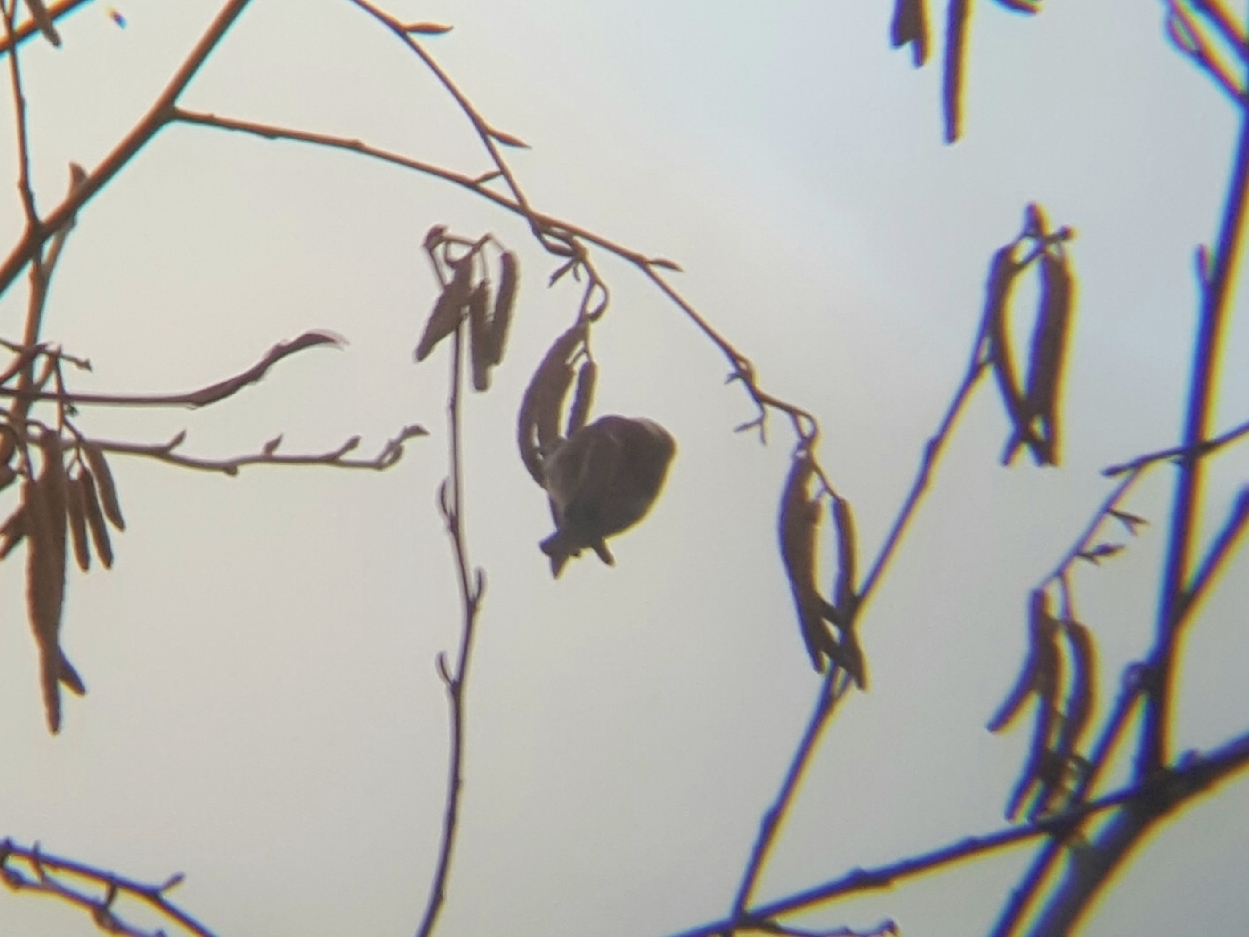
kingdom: Animalia
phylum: Chordata
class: Aves
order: Passeriformes
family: Paridae
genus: Poecile
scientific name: Poecile rufescens
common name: Chestnut-backed chickadee
